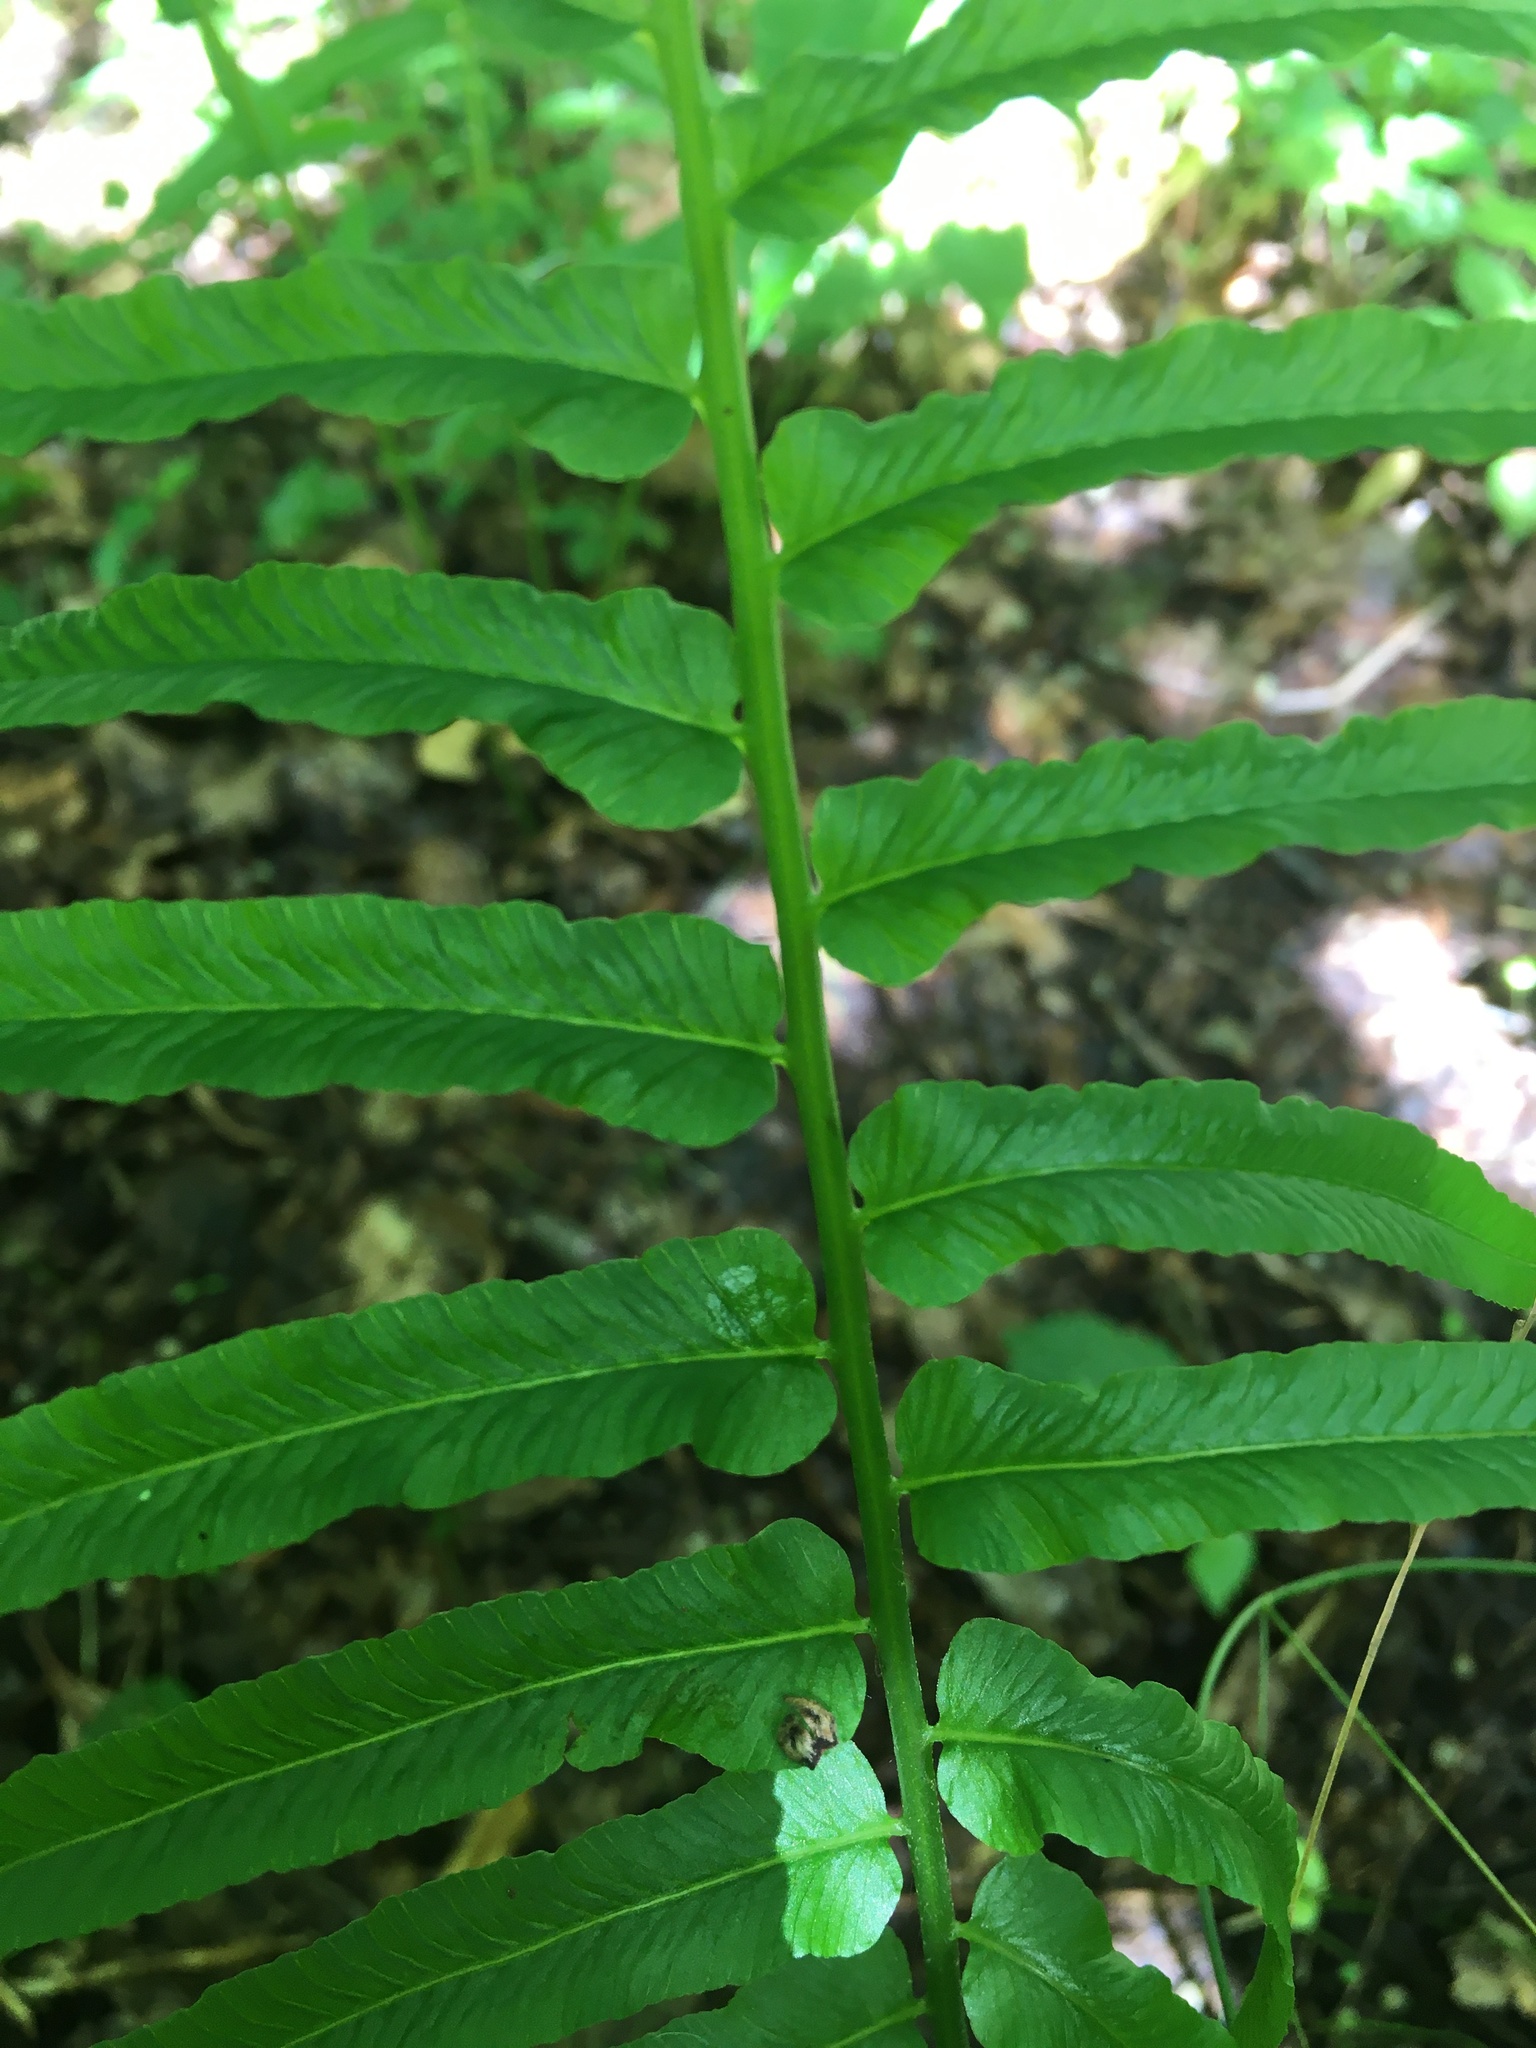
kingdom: Plantae
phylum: Tracheophyta
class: Polypodiopsida
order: Polypodiales
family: Diplaziopsidaceae
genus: Homalosorus
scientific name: Homalosorus pycnocarpos
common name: Glade fern
